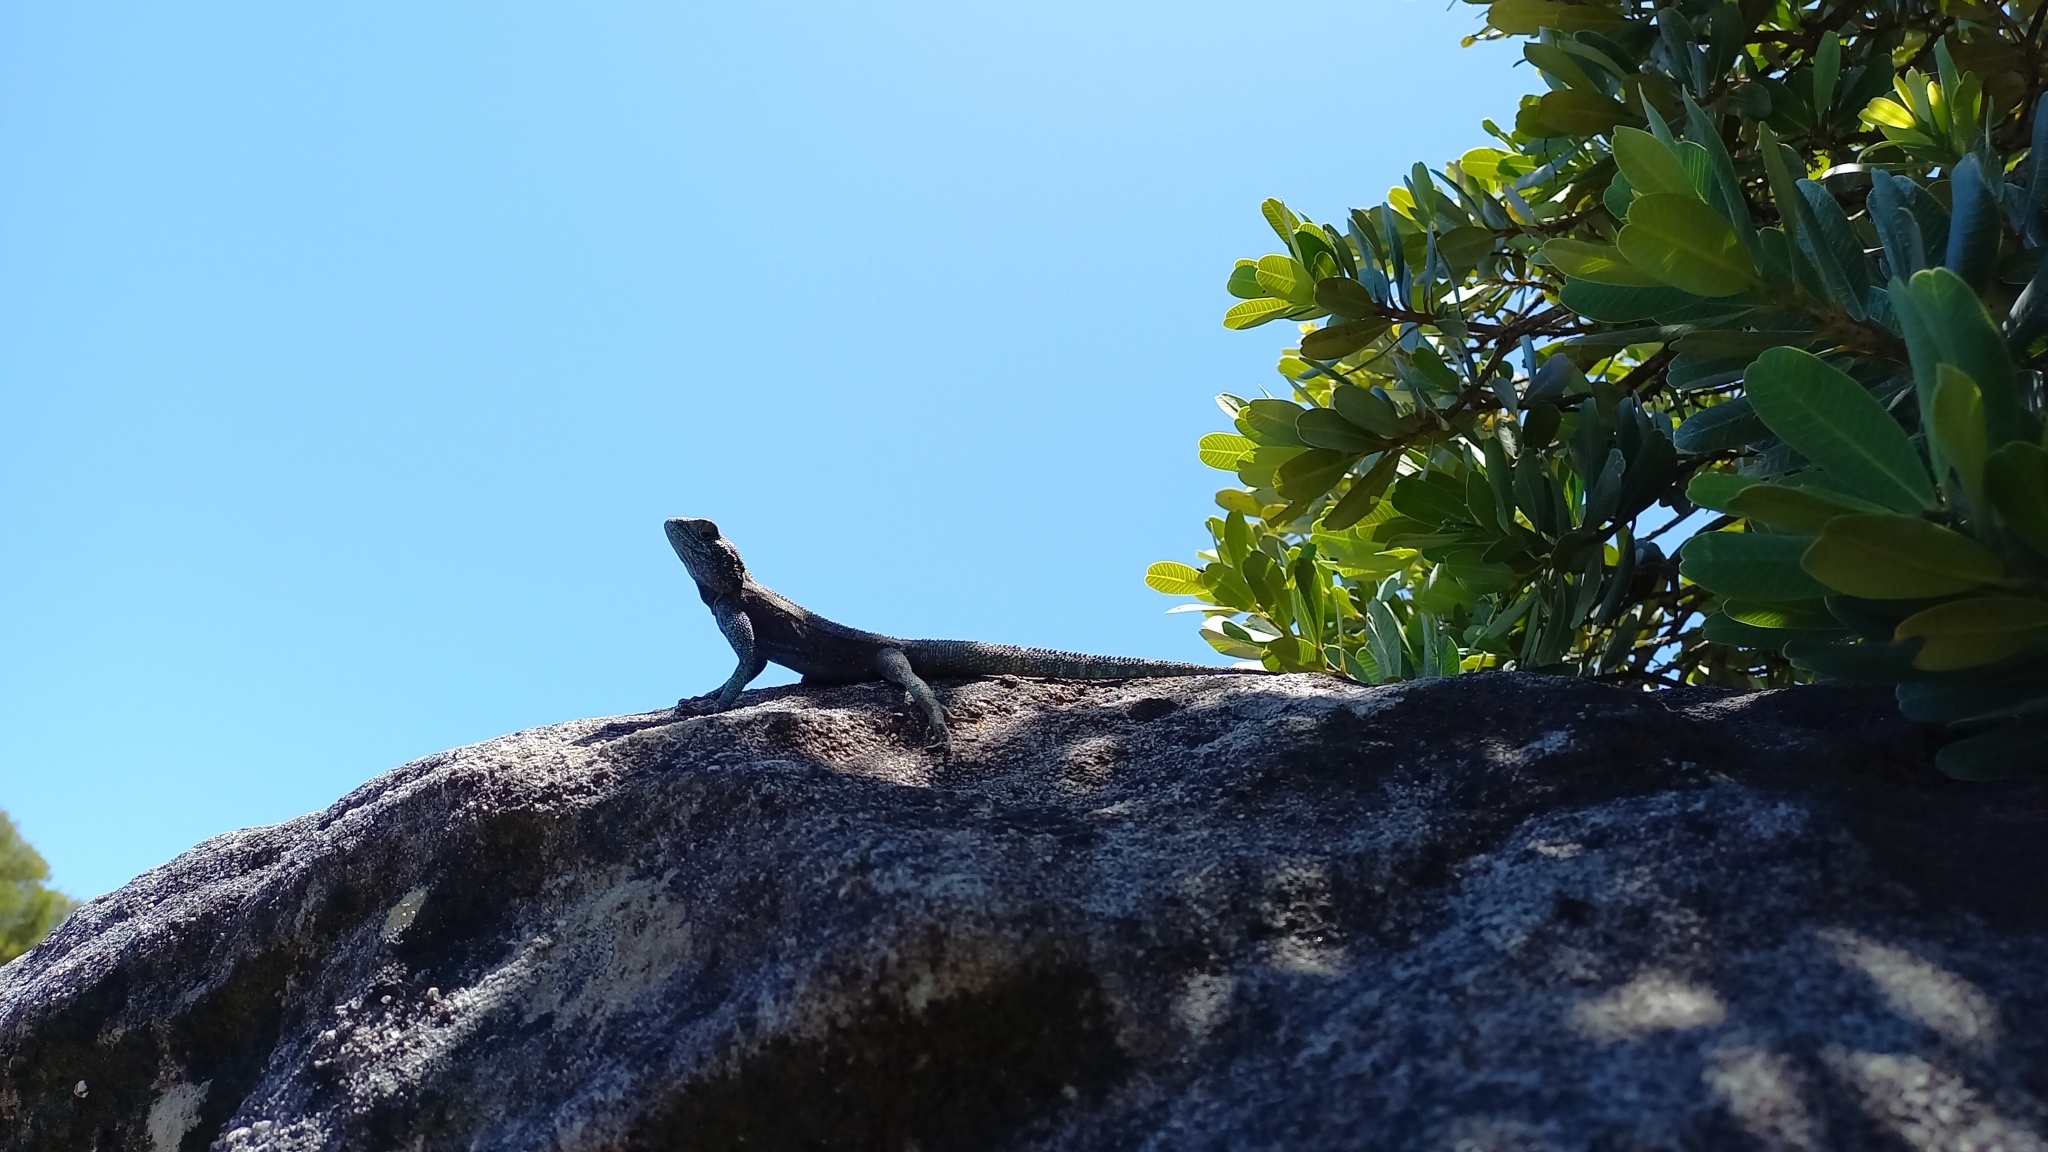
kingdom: Animalia
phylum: Chordata
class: Squamata
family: Agamidae
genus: Agama
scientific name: Agama atra
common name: Southern african rock agama
